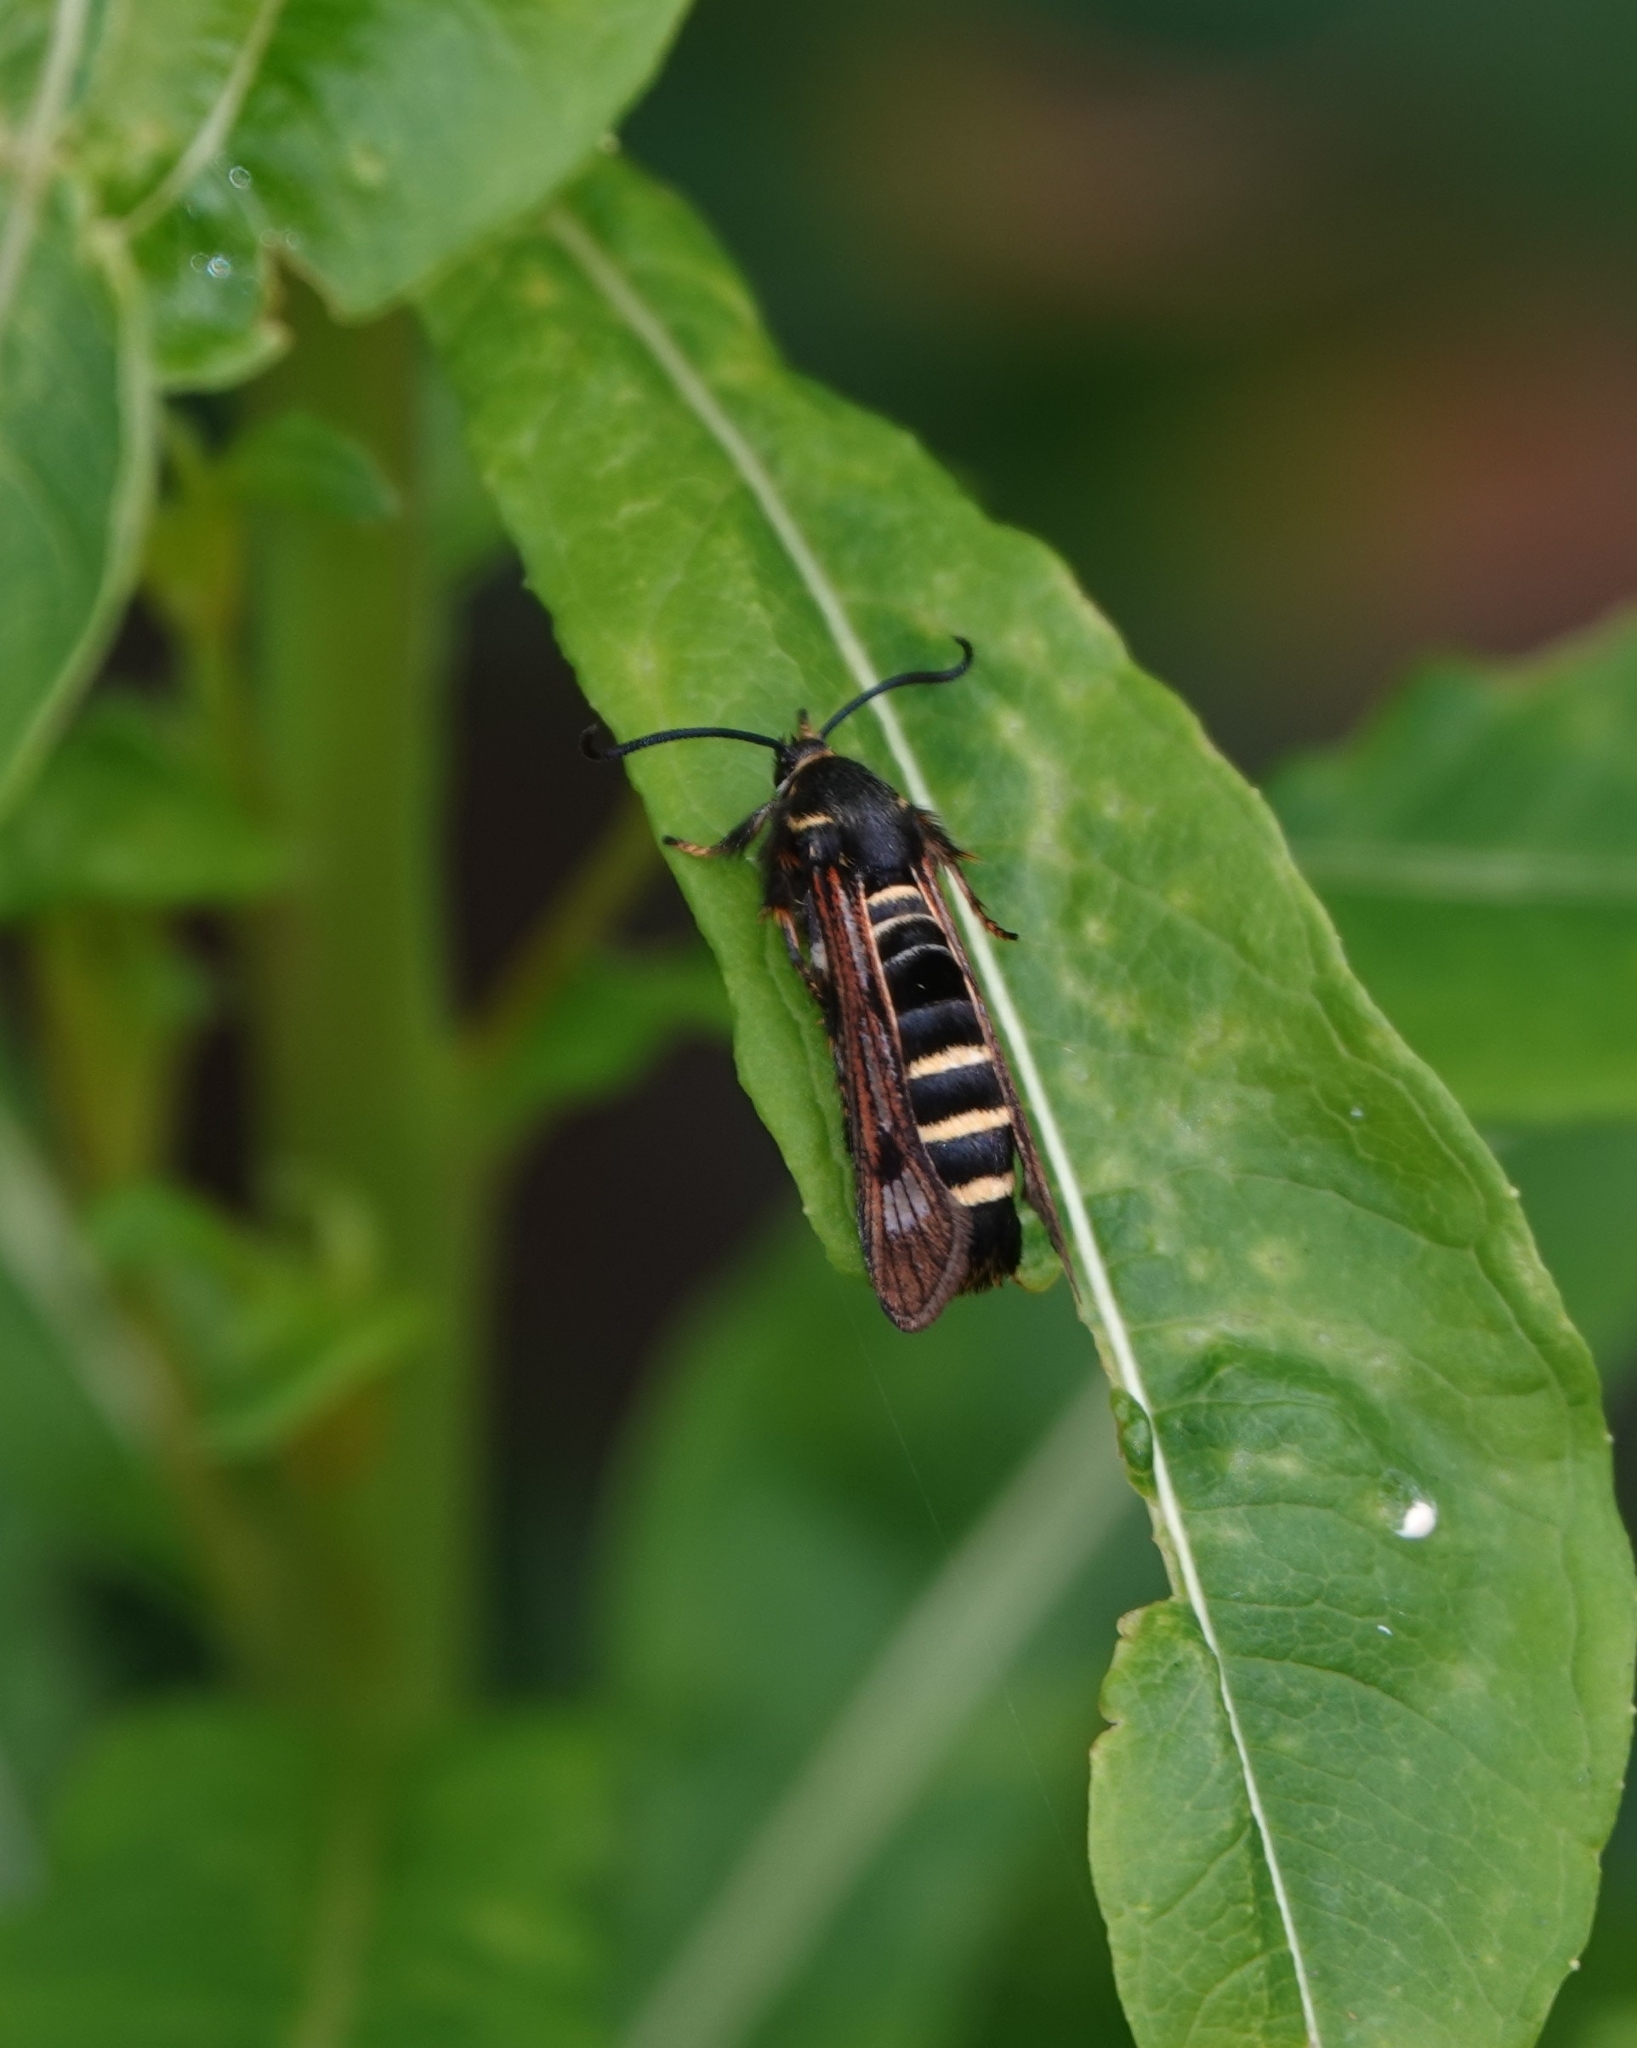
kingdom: Animalia
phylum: Arthropoda
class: Insecta
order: Lepidoptera
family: Sesiidae
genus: Pennisetia
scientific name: Pennisetia hylaeiformis
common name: Raspberry clearwing
